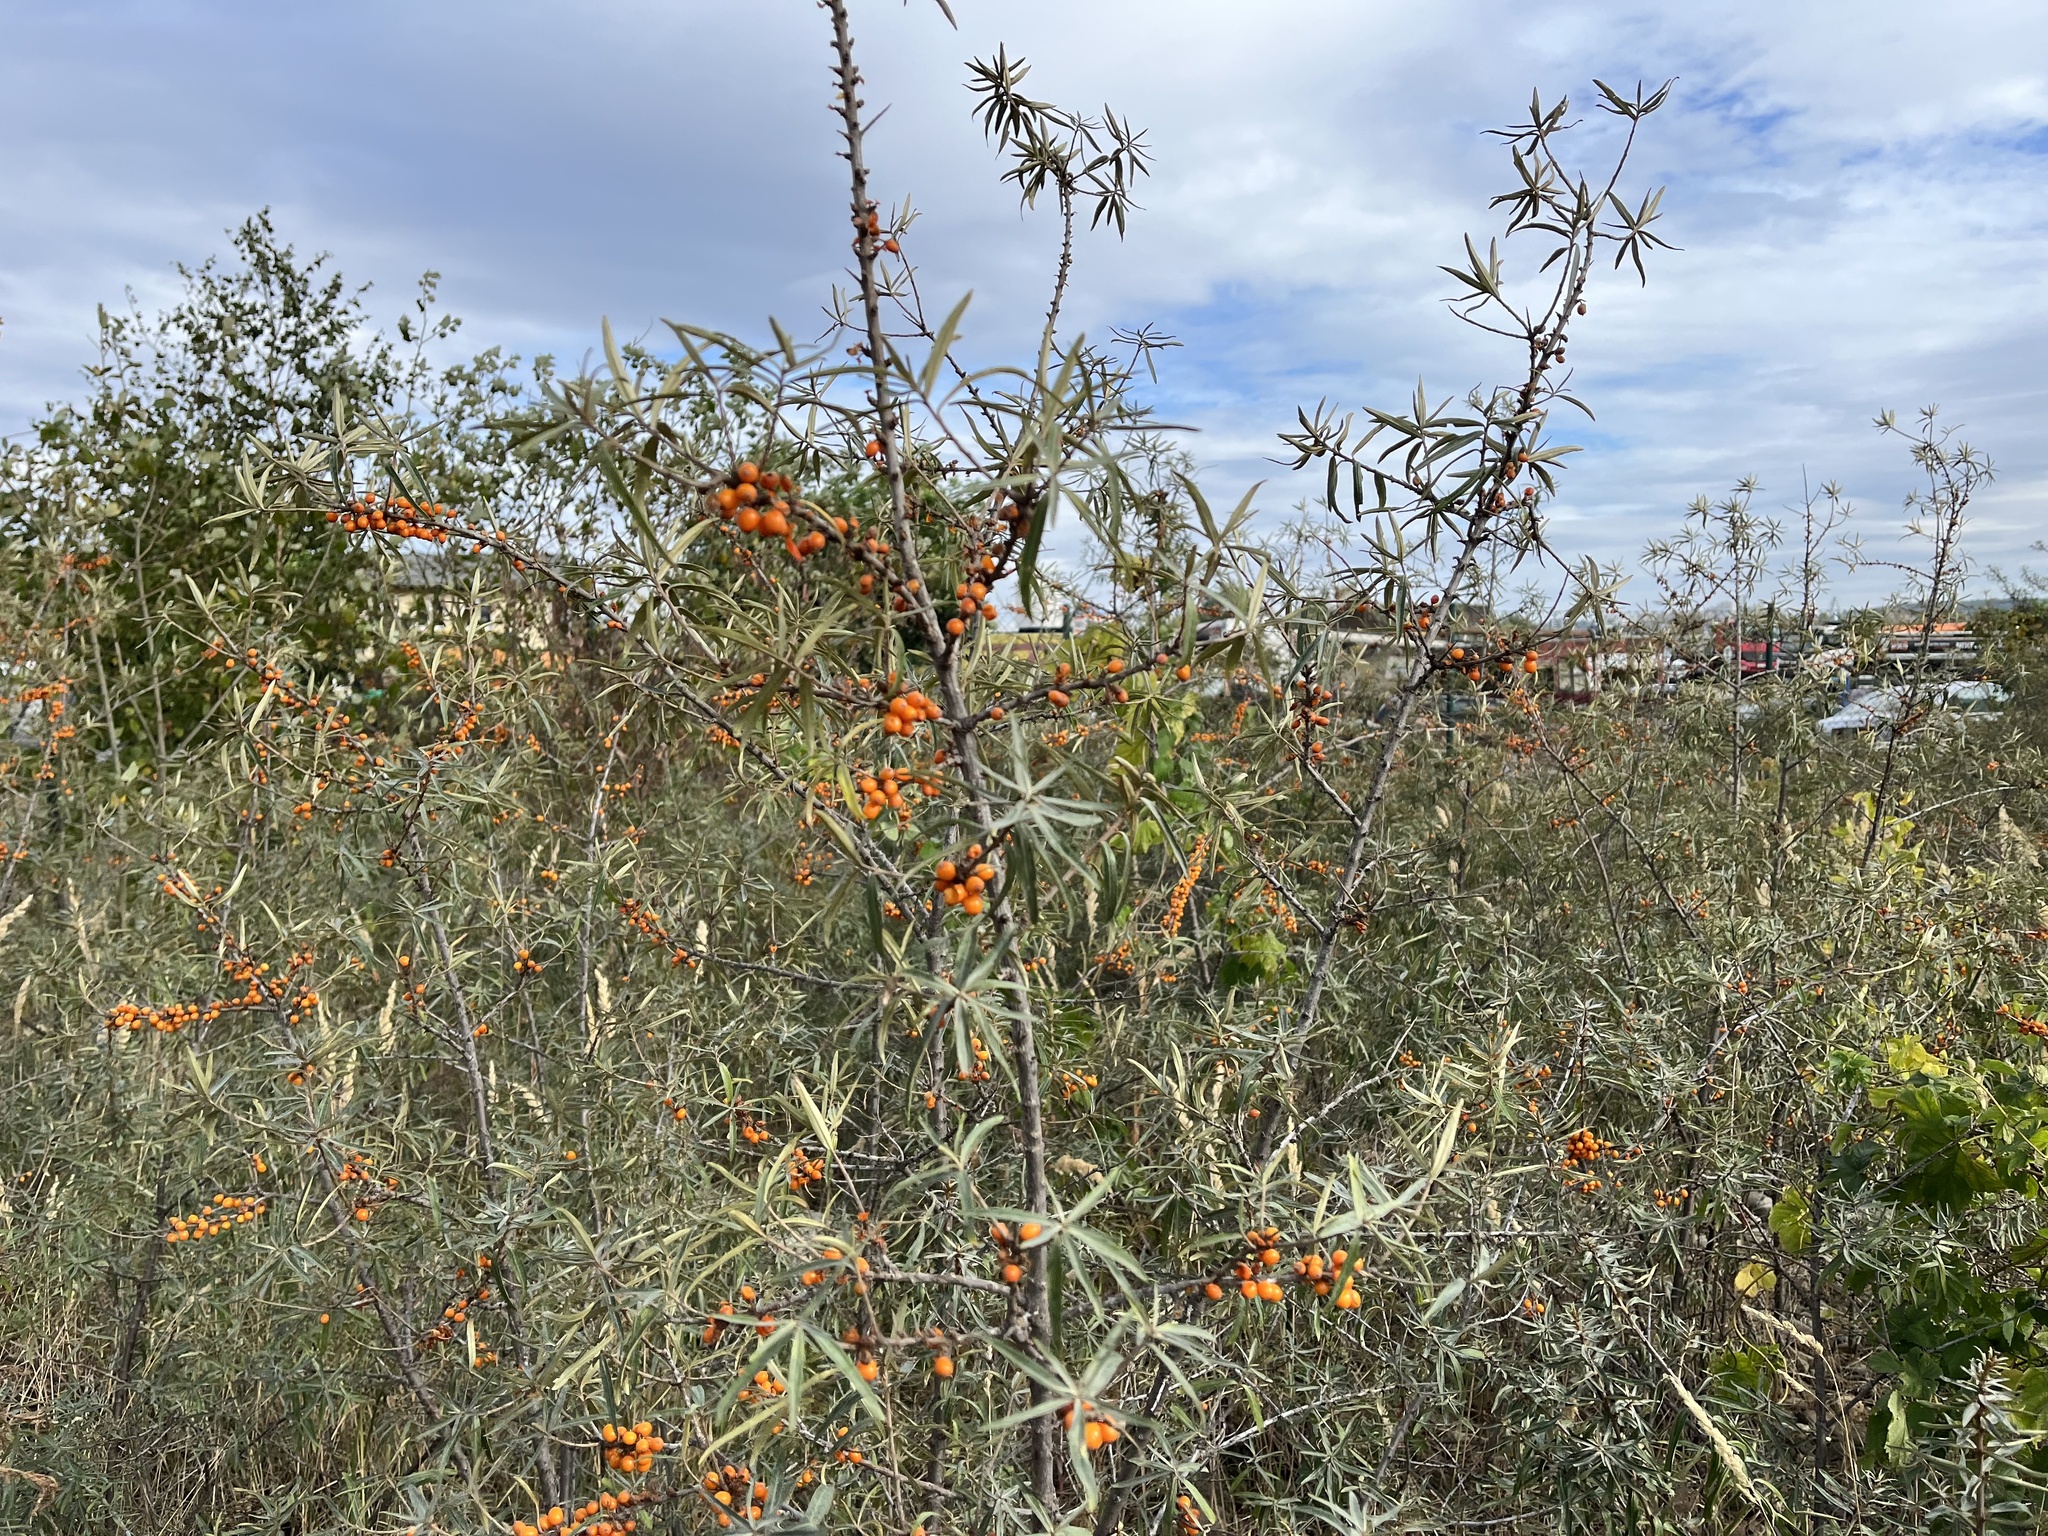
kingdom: Plantae
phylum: Tracheophyta
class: Magnoliopsida
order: Rosales
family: Elaeagnaceae
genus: Hippophae
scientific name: Hippophae rhamnoides
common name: Sea-buckthorn
